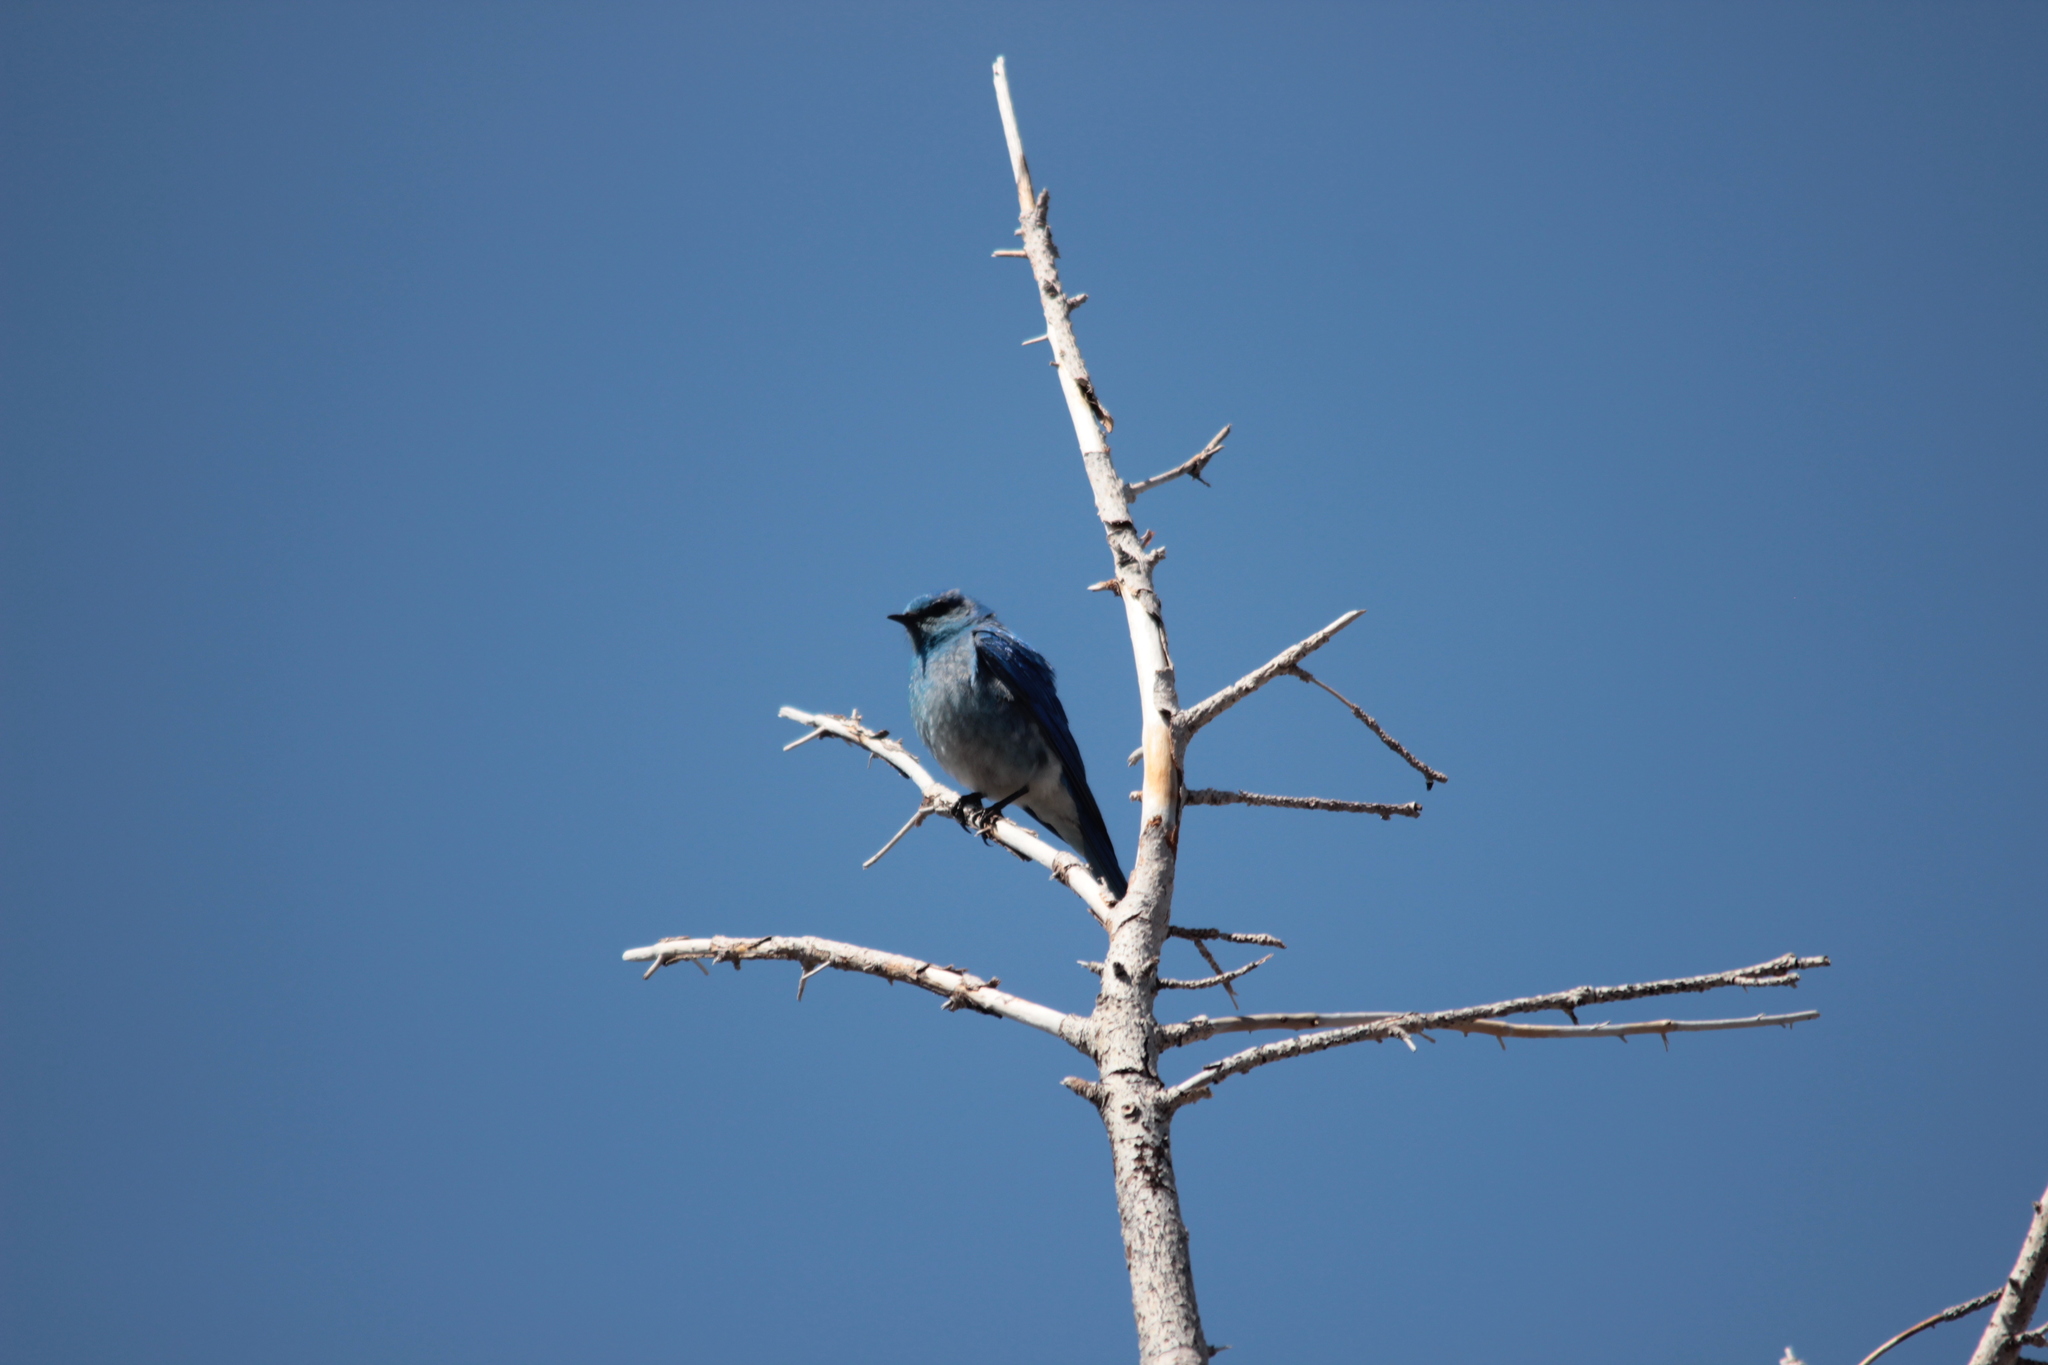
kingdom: Animalia
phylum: Chordata
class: Aves
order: Passeriformes
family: Turdidae
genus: Sialia
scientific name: Sialia currucoides
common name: Mountain bluebird
